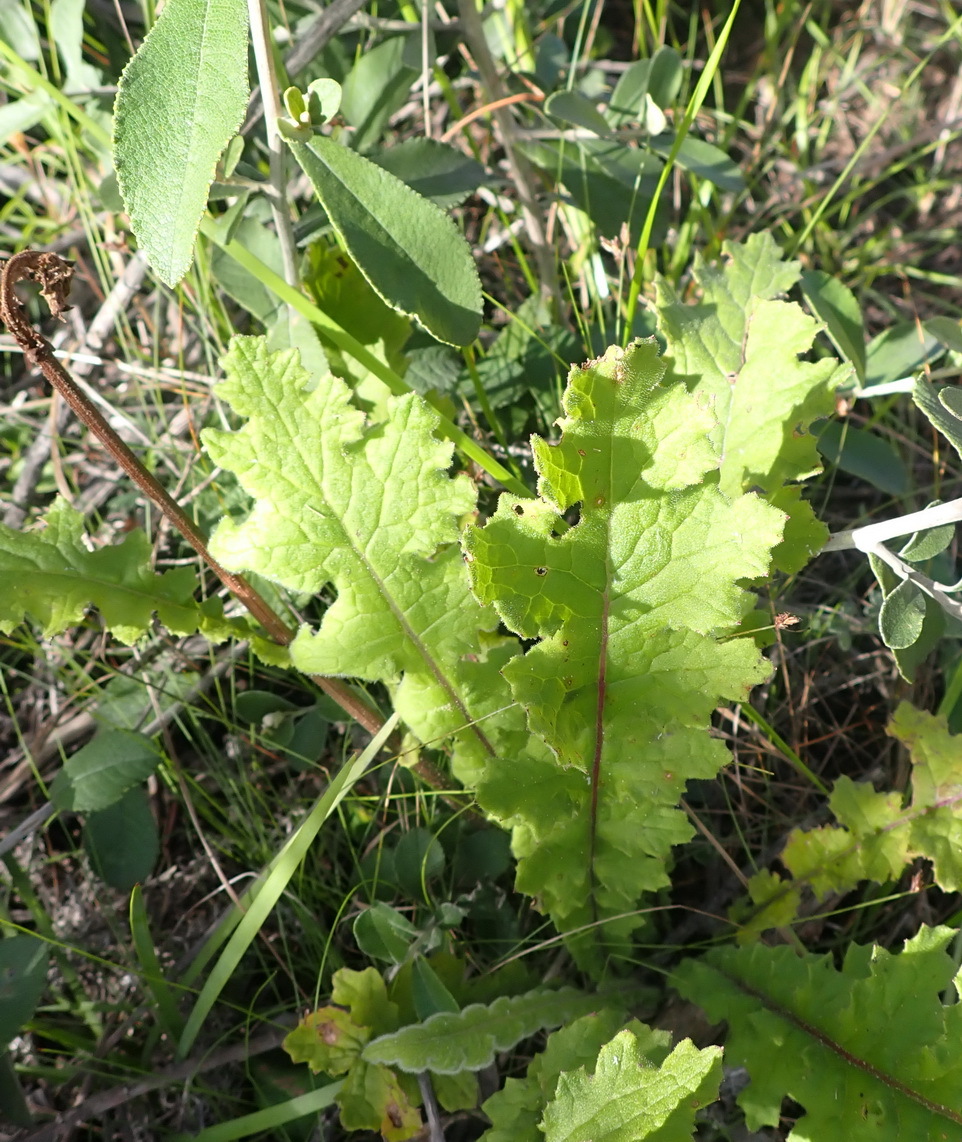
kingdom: Plantae
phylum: Tracheophyta
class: Magnoliopsida
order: Asterales
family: Asteraceae
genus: Senecio
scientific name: Senecio purpureus
